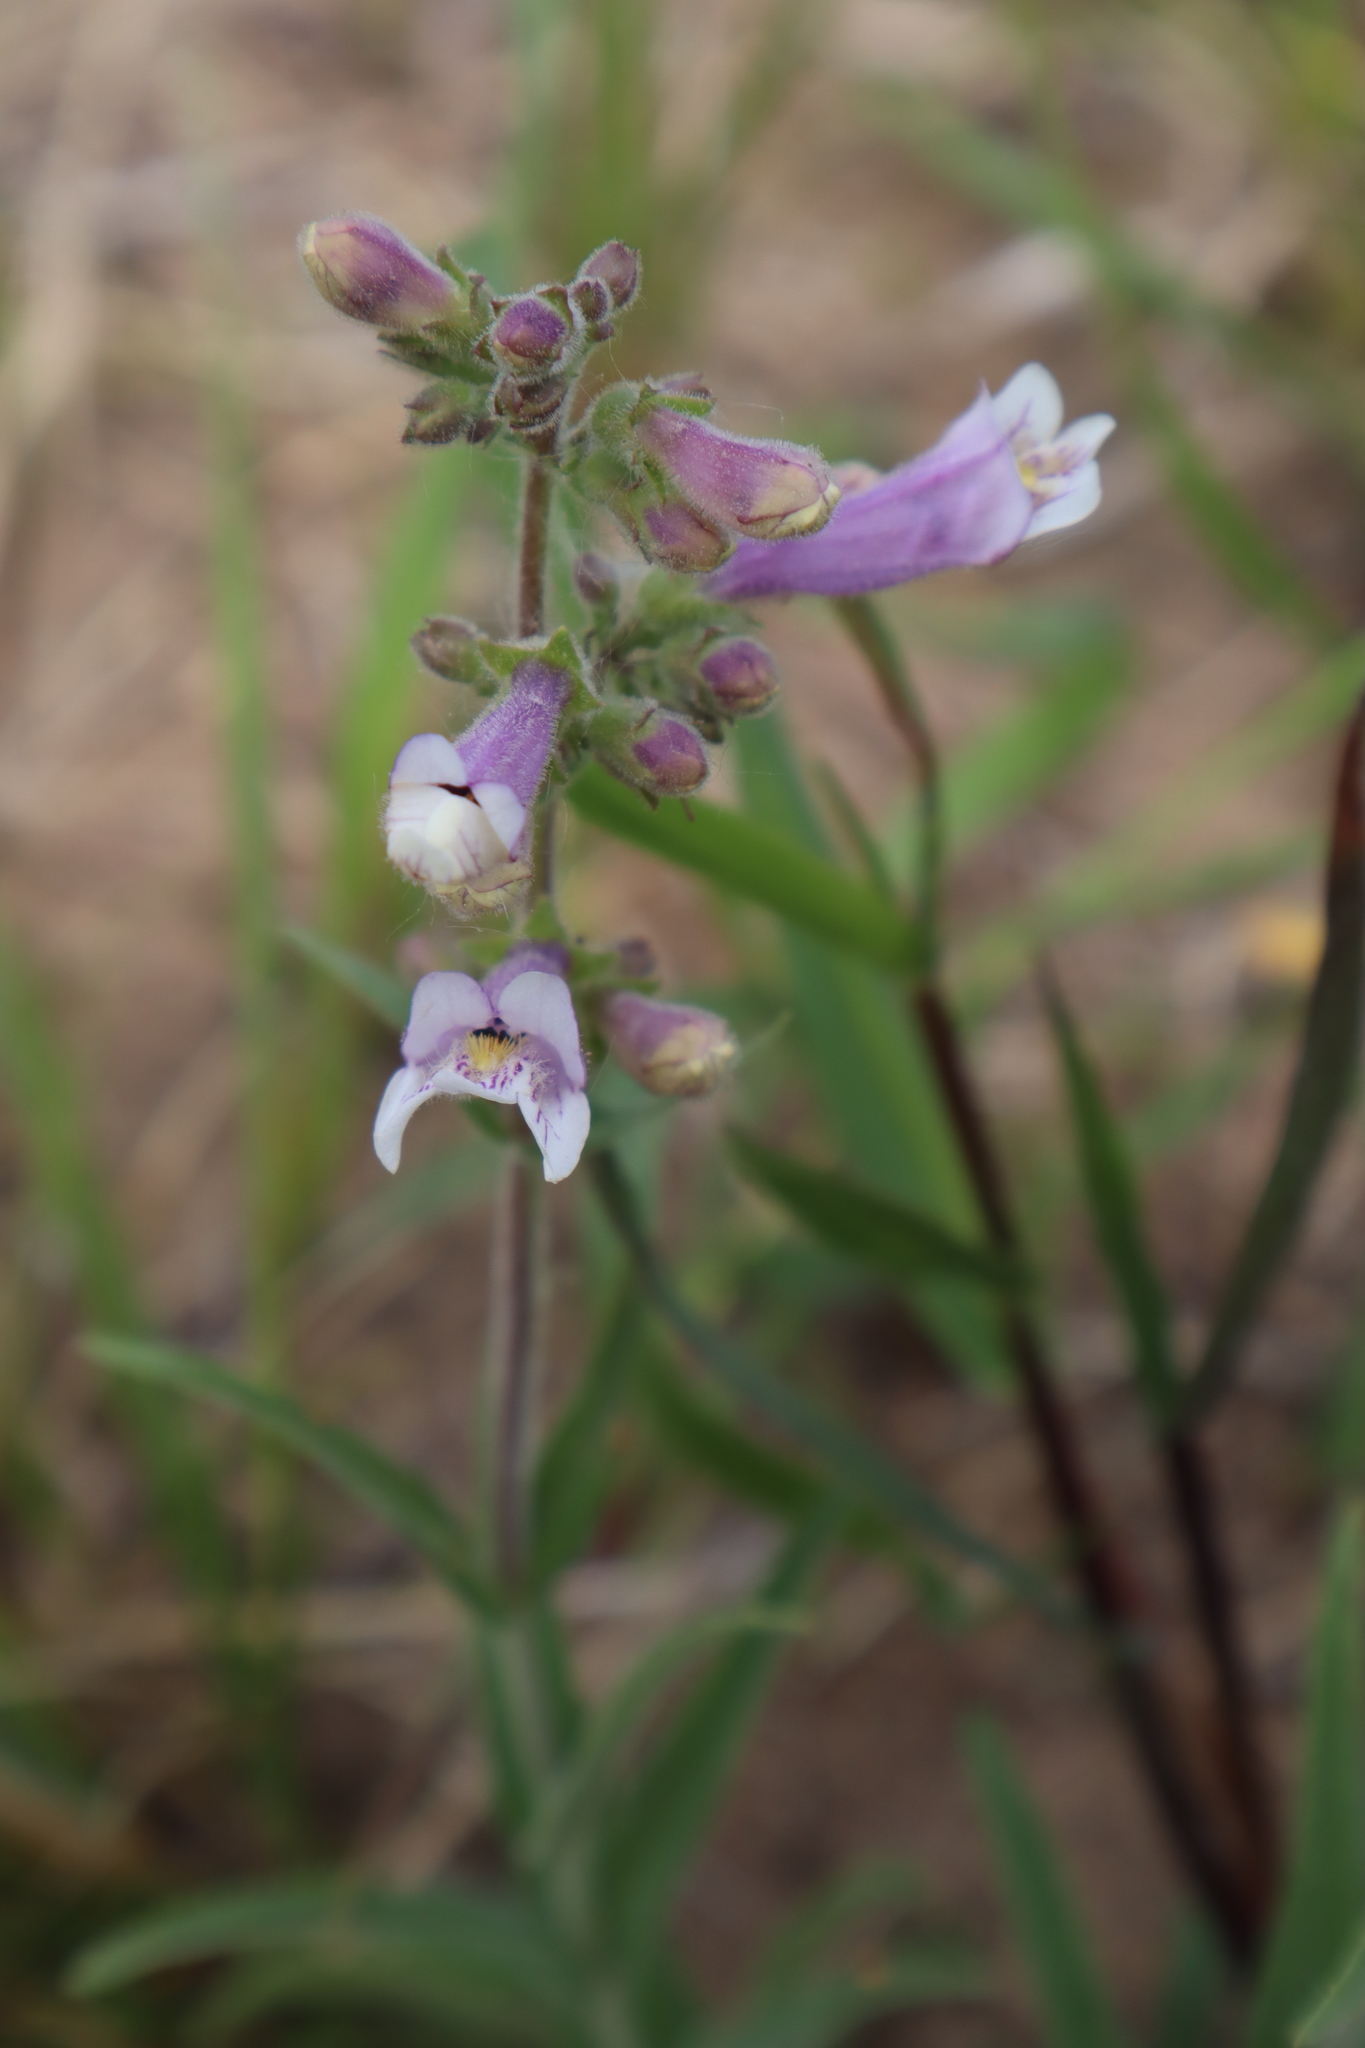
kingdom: Plantae
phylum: Tracheophyta
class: Magnoliopsida
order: Lamiales
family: Plantaginaceae
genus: Penstemon
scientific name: Penstemon gracilis
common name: Slender beardtongue
